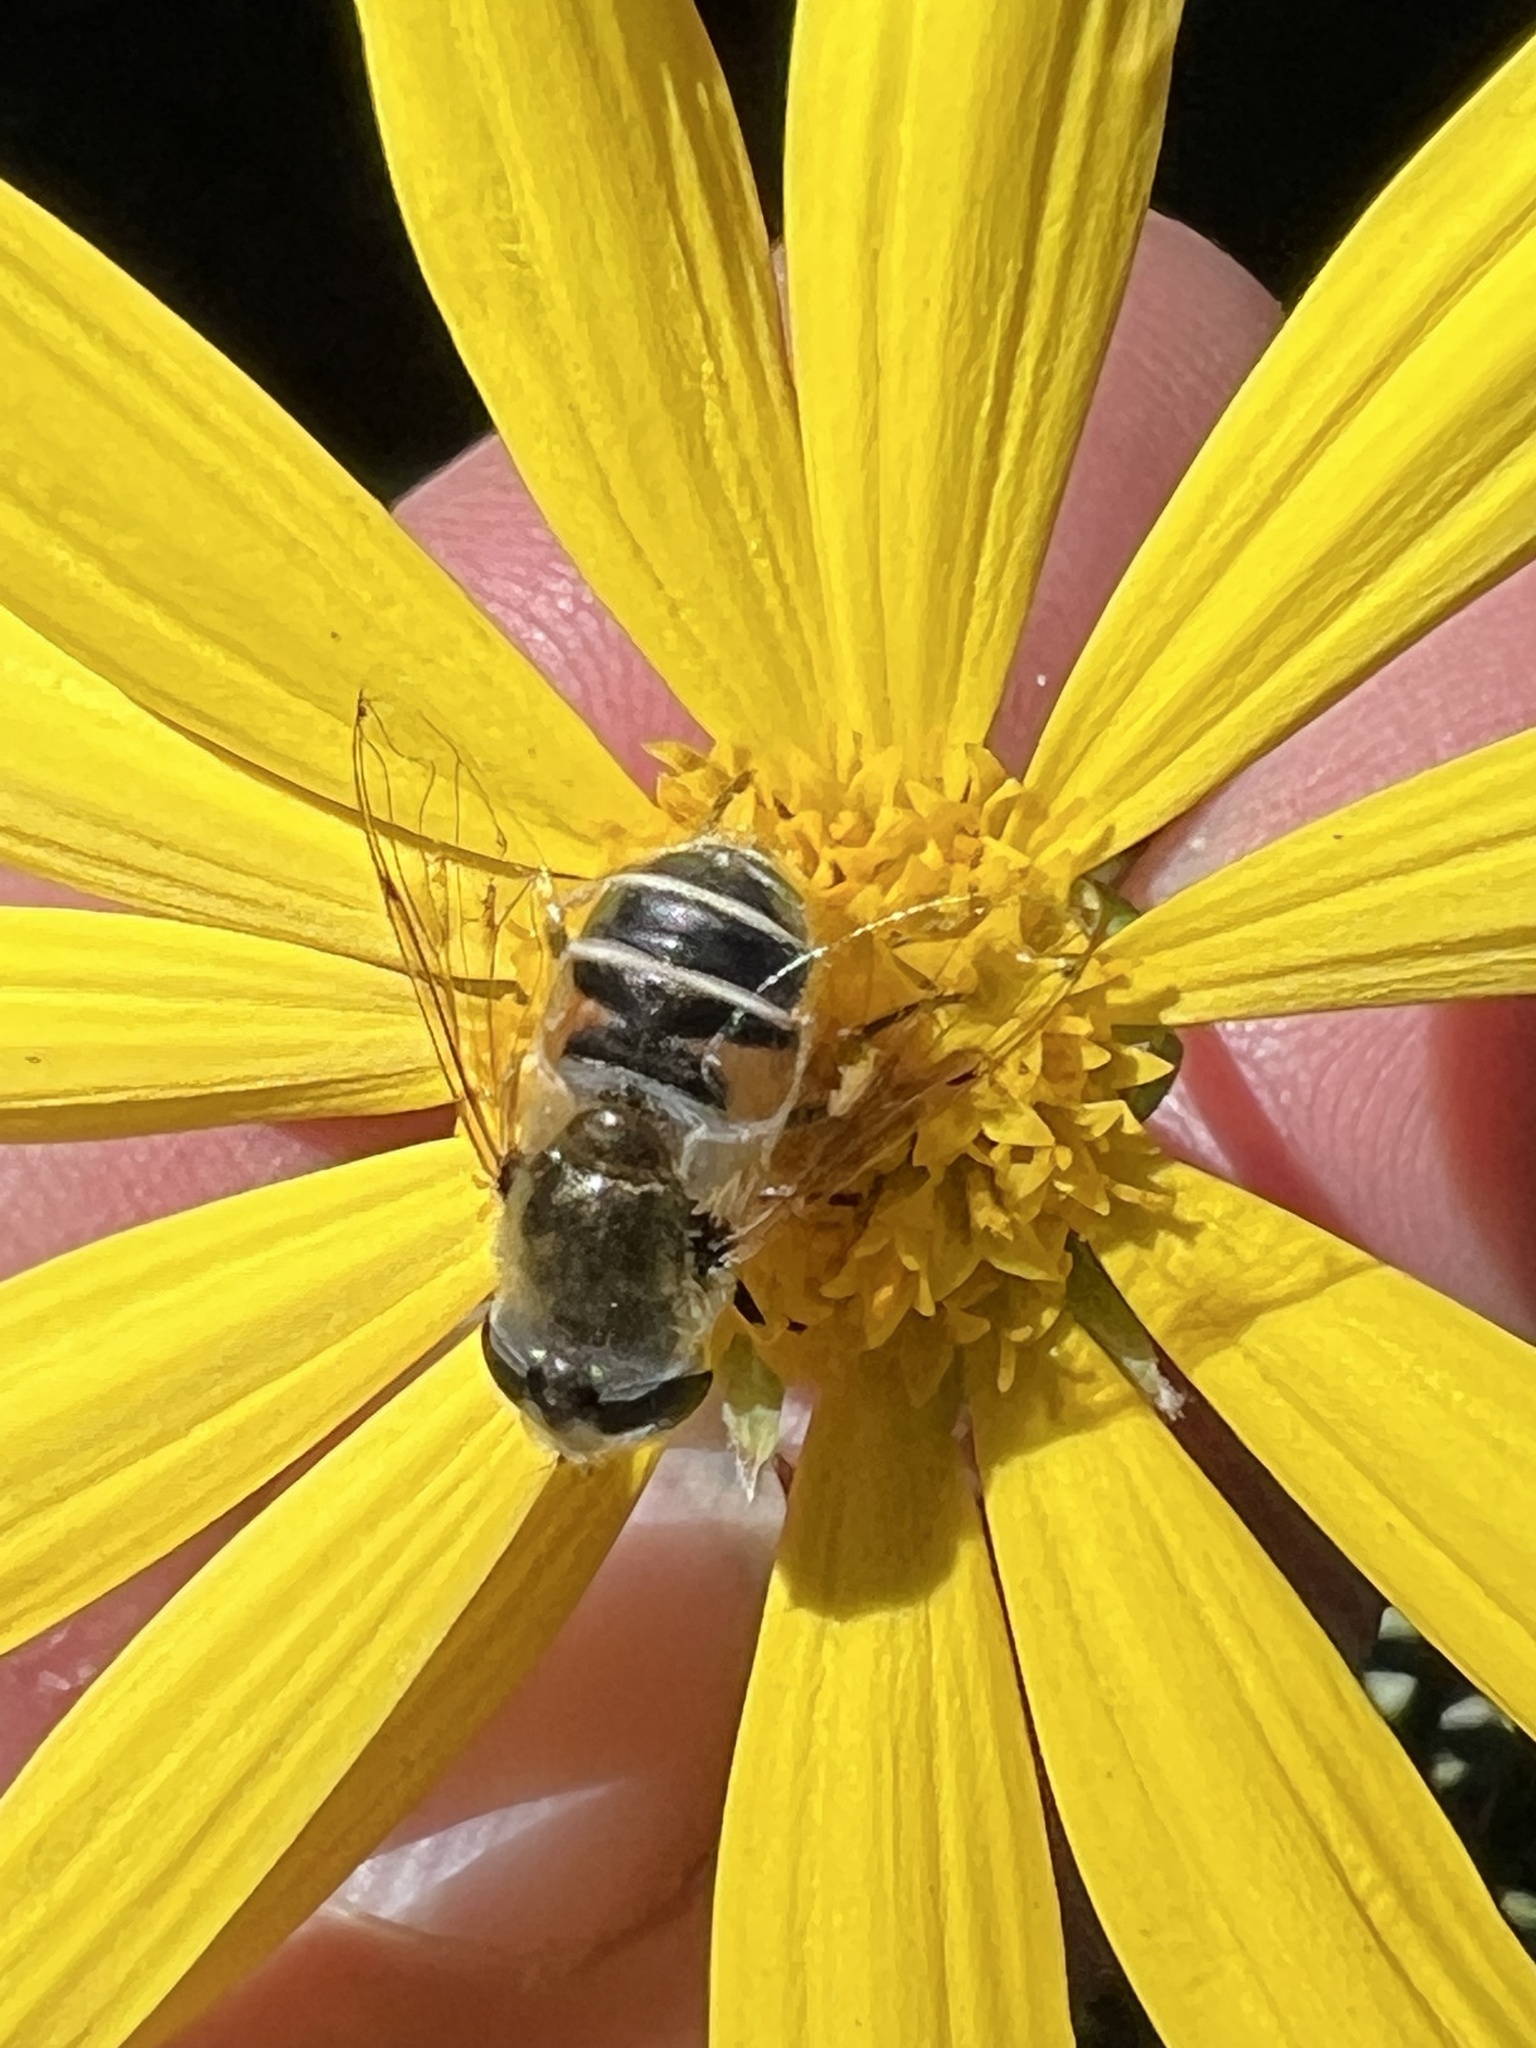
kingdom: Animalia
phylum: Arthropoda
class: Insecta
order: Diptera
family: Syrphidae
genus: Eristalis
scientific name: Eristalis stipator
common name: Yellow-shouldered drone fly
